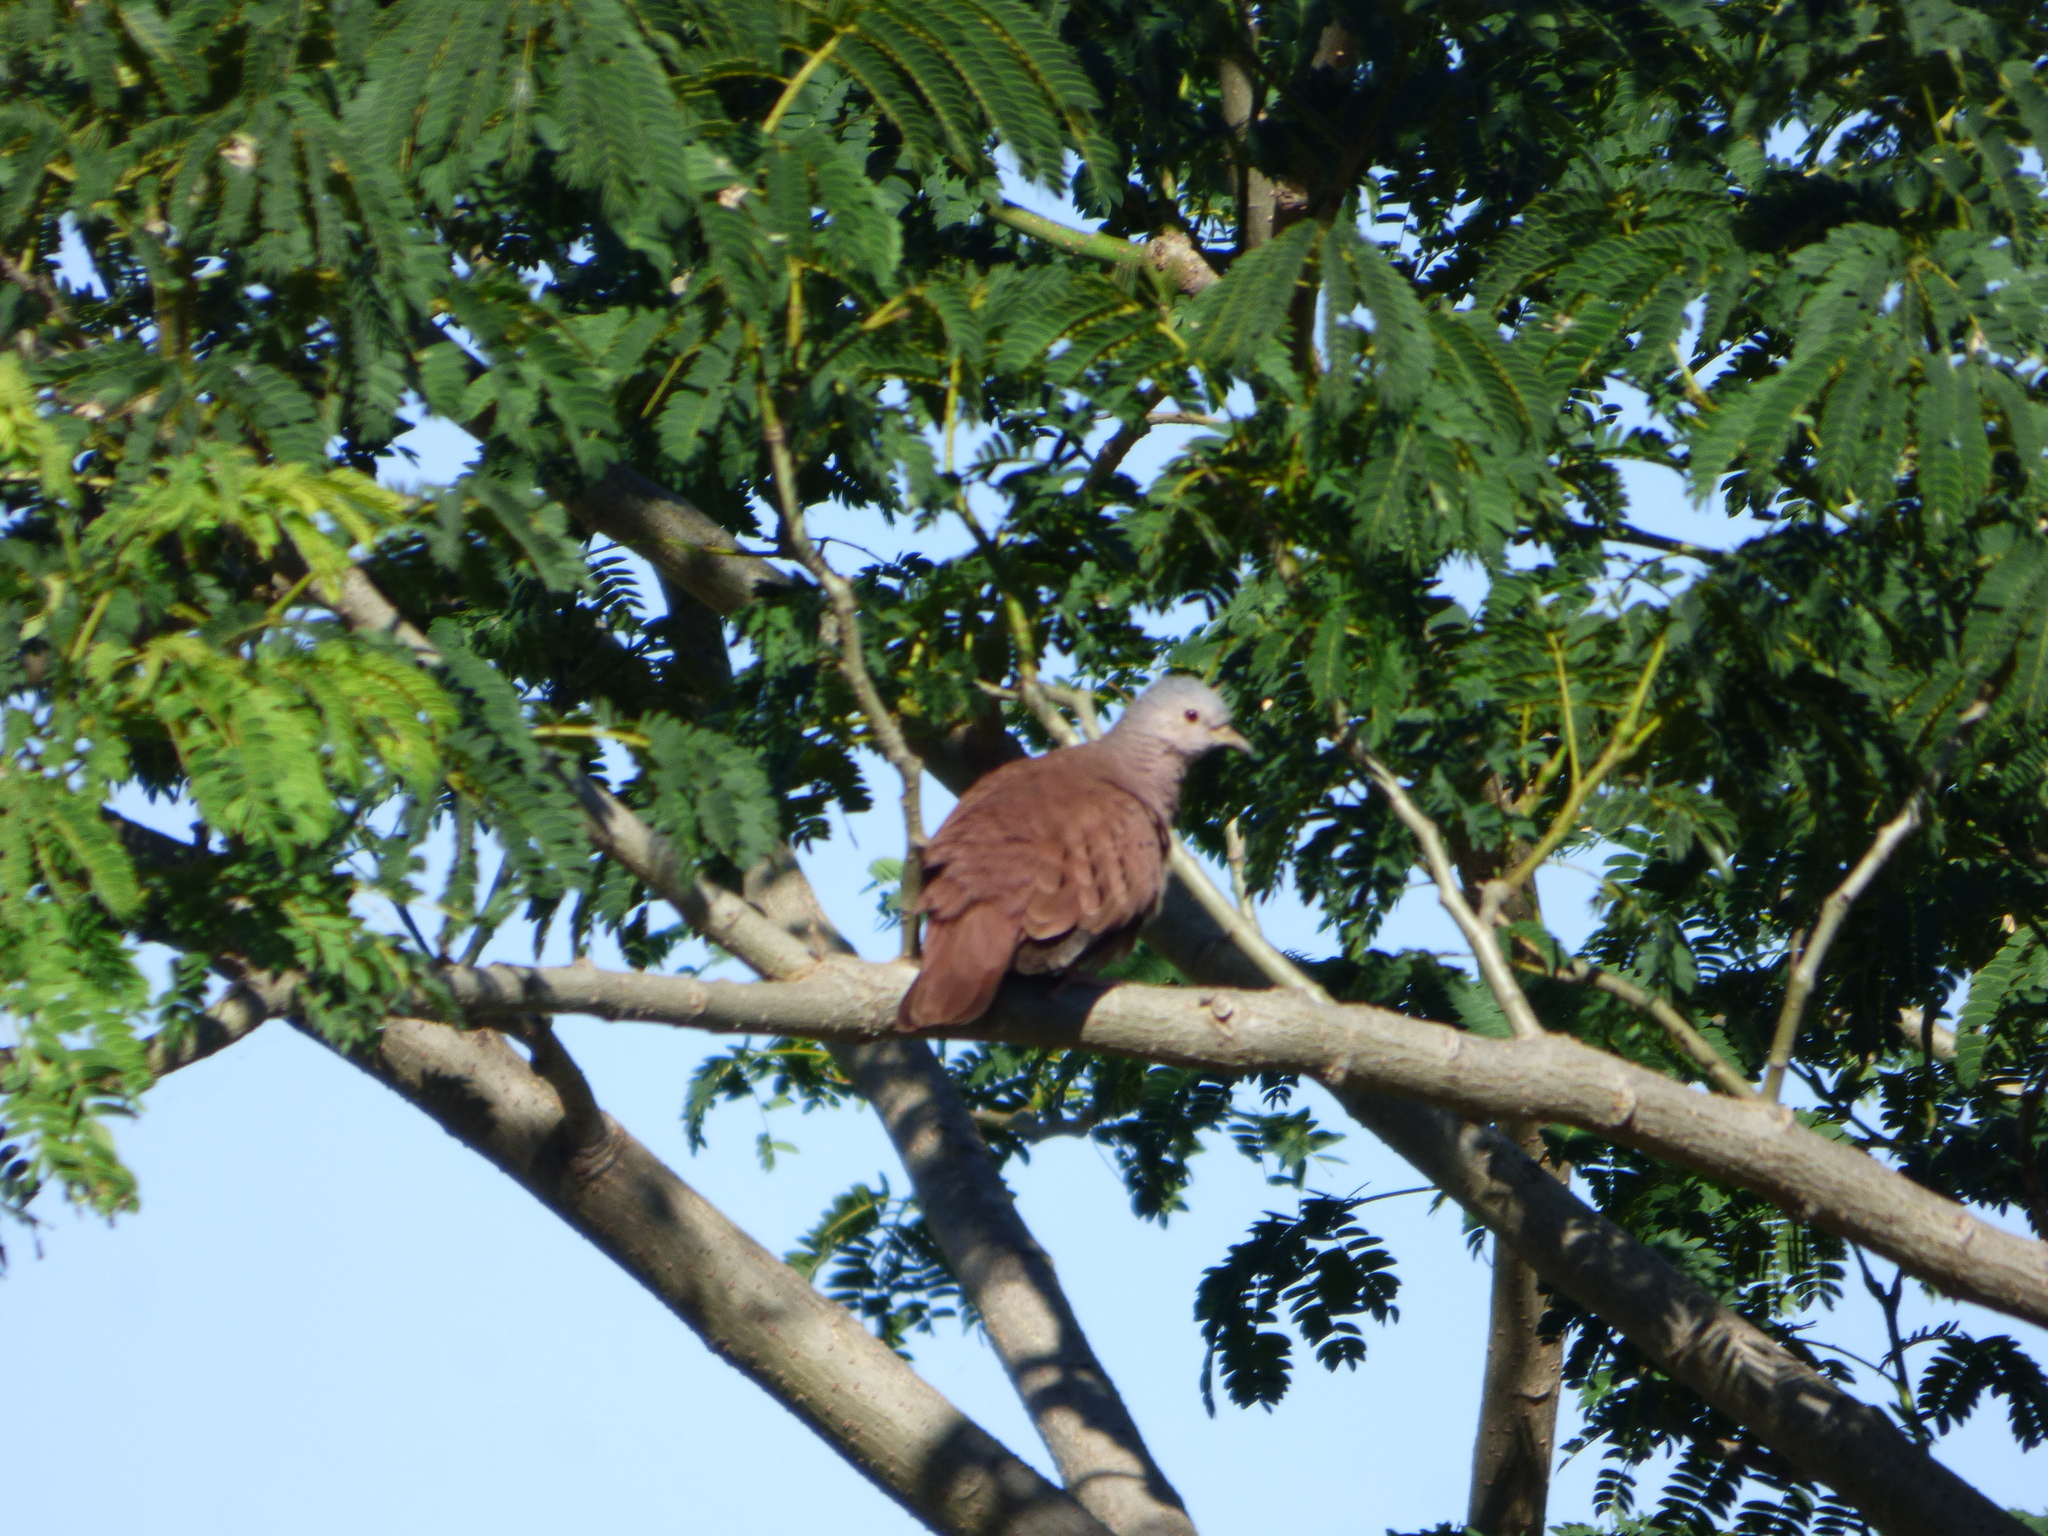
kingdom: Animalia
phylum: Chordata
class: Aves
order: Columbiformes
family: Columbidae
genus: Columbina
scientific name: Columbina talpacoti
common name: Ruddy ground dove
